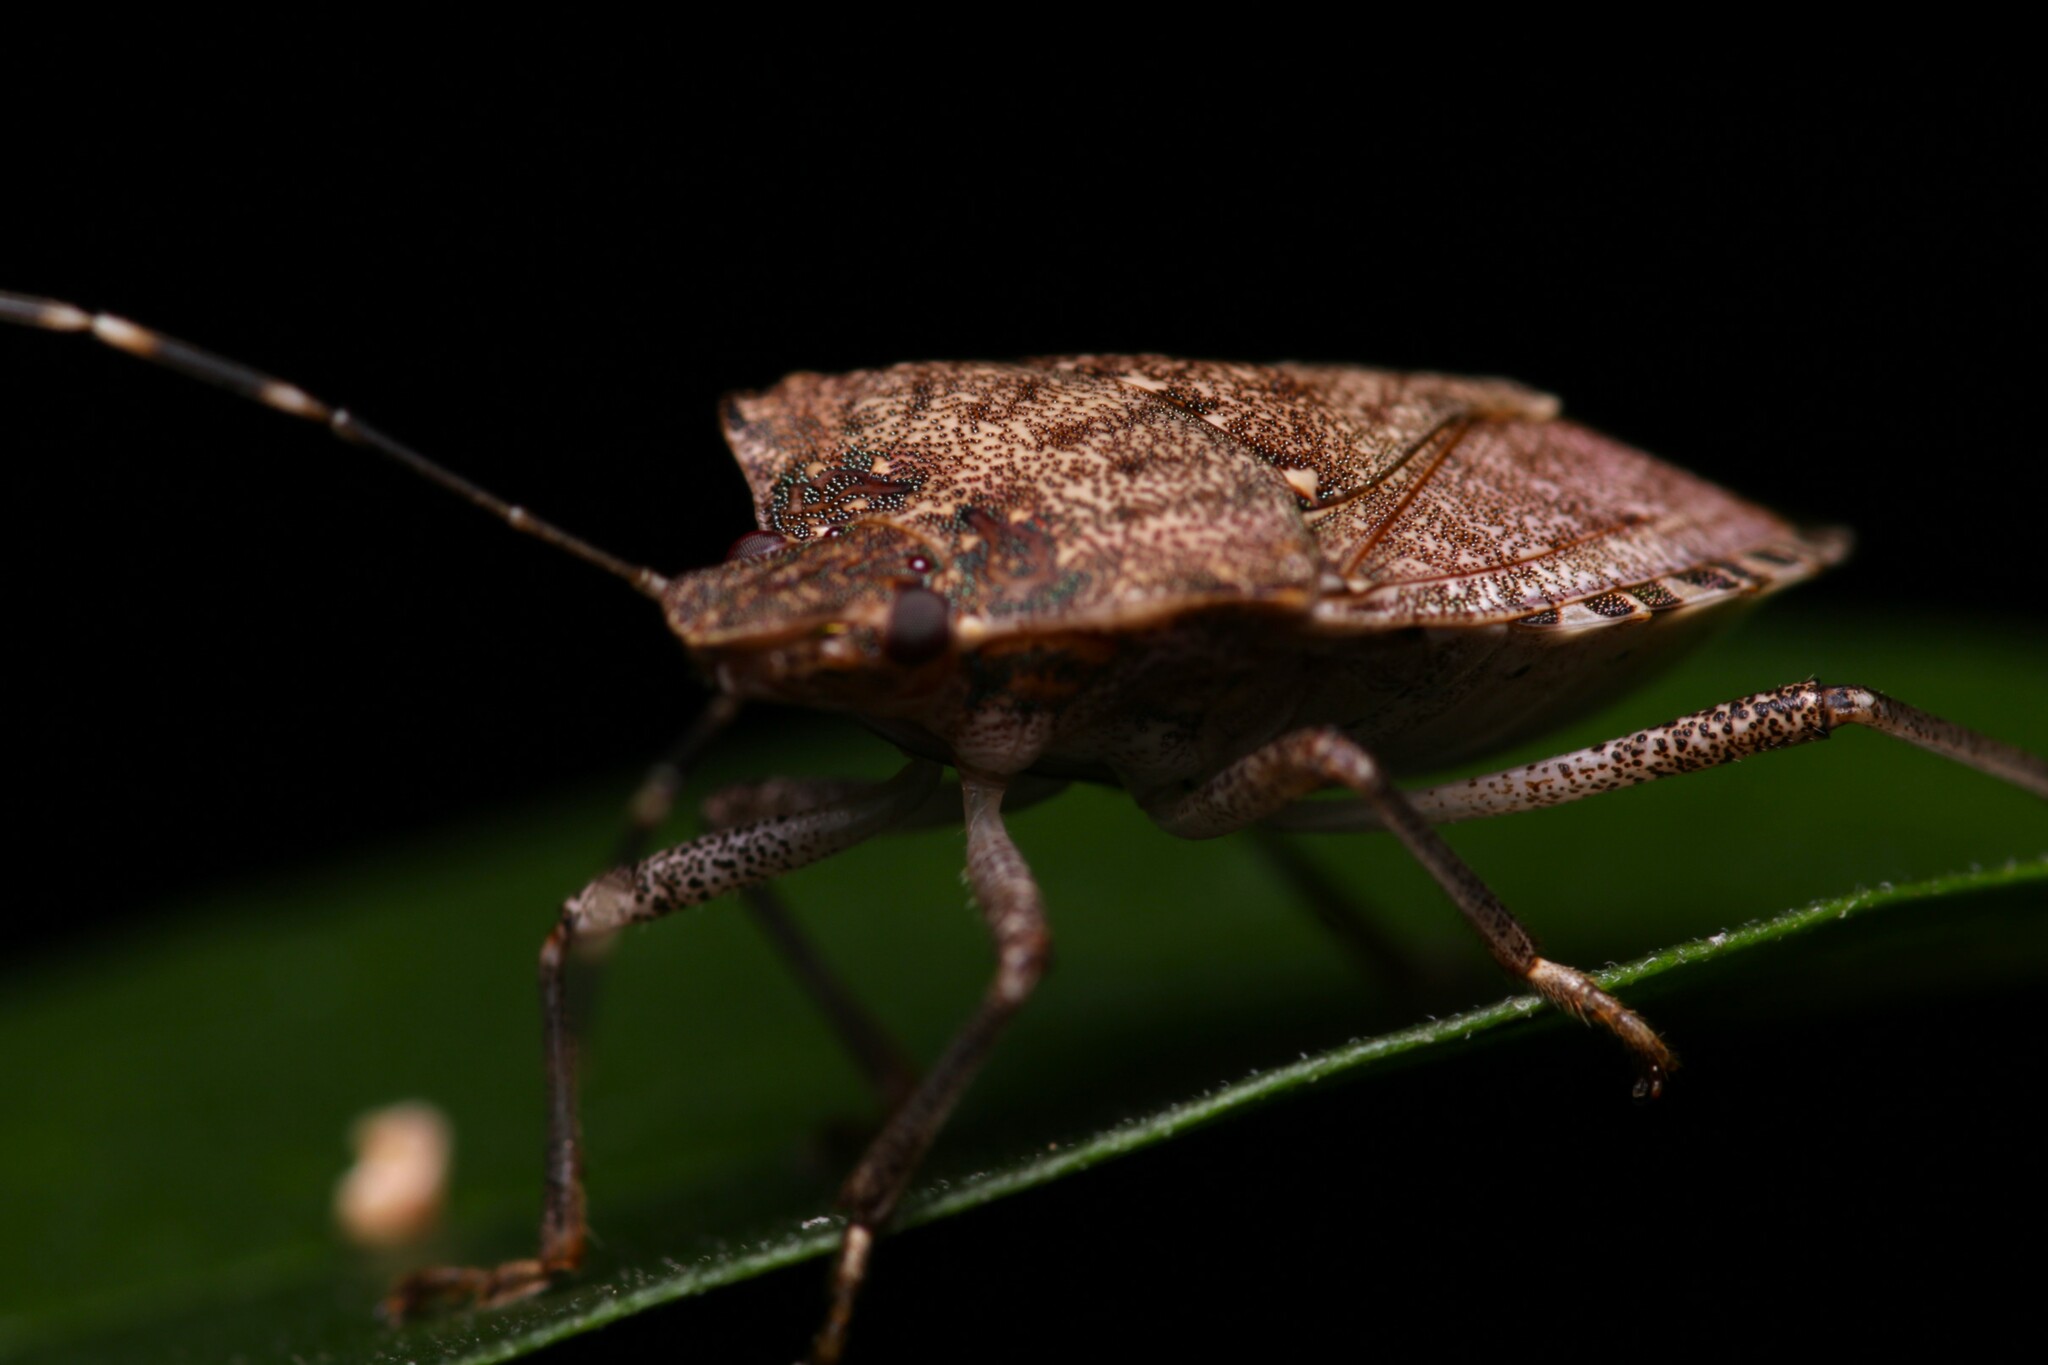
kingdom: Animalia
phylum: Arthropoda
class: Insecta
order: Hemiptera
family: Pentatomidae
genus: Halyomorpha
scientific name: Halyomorpha halys
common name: Brown marmorated stink bug
